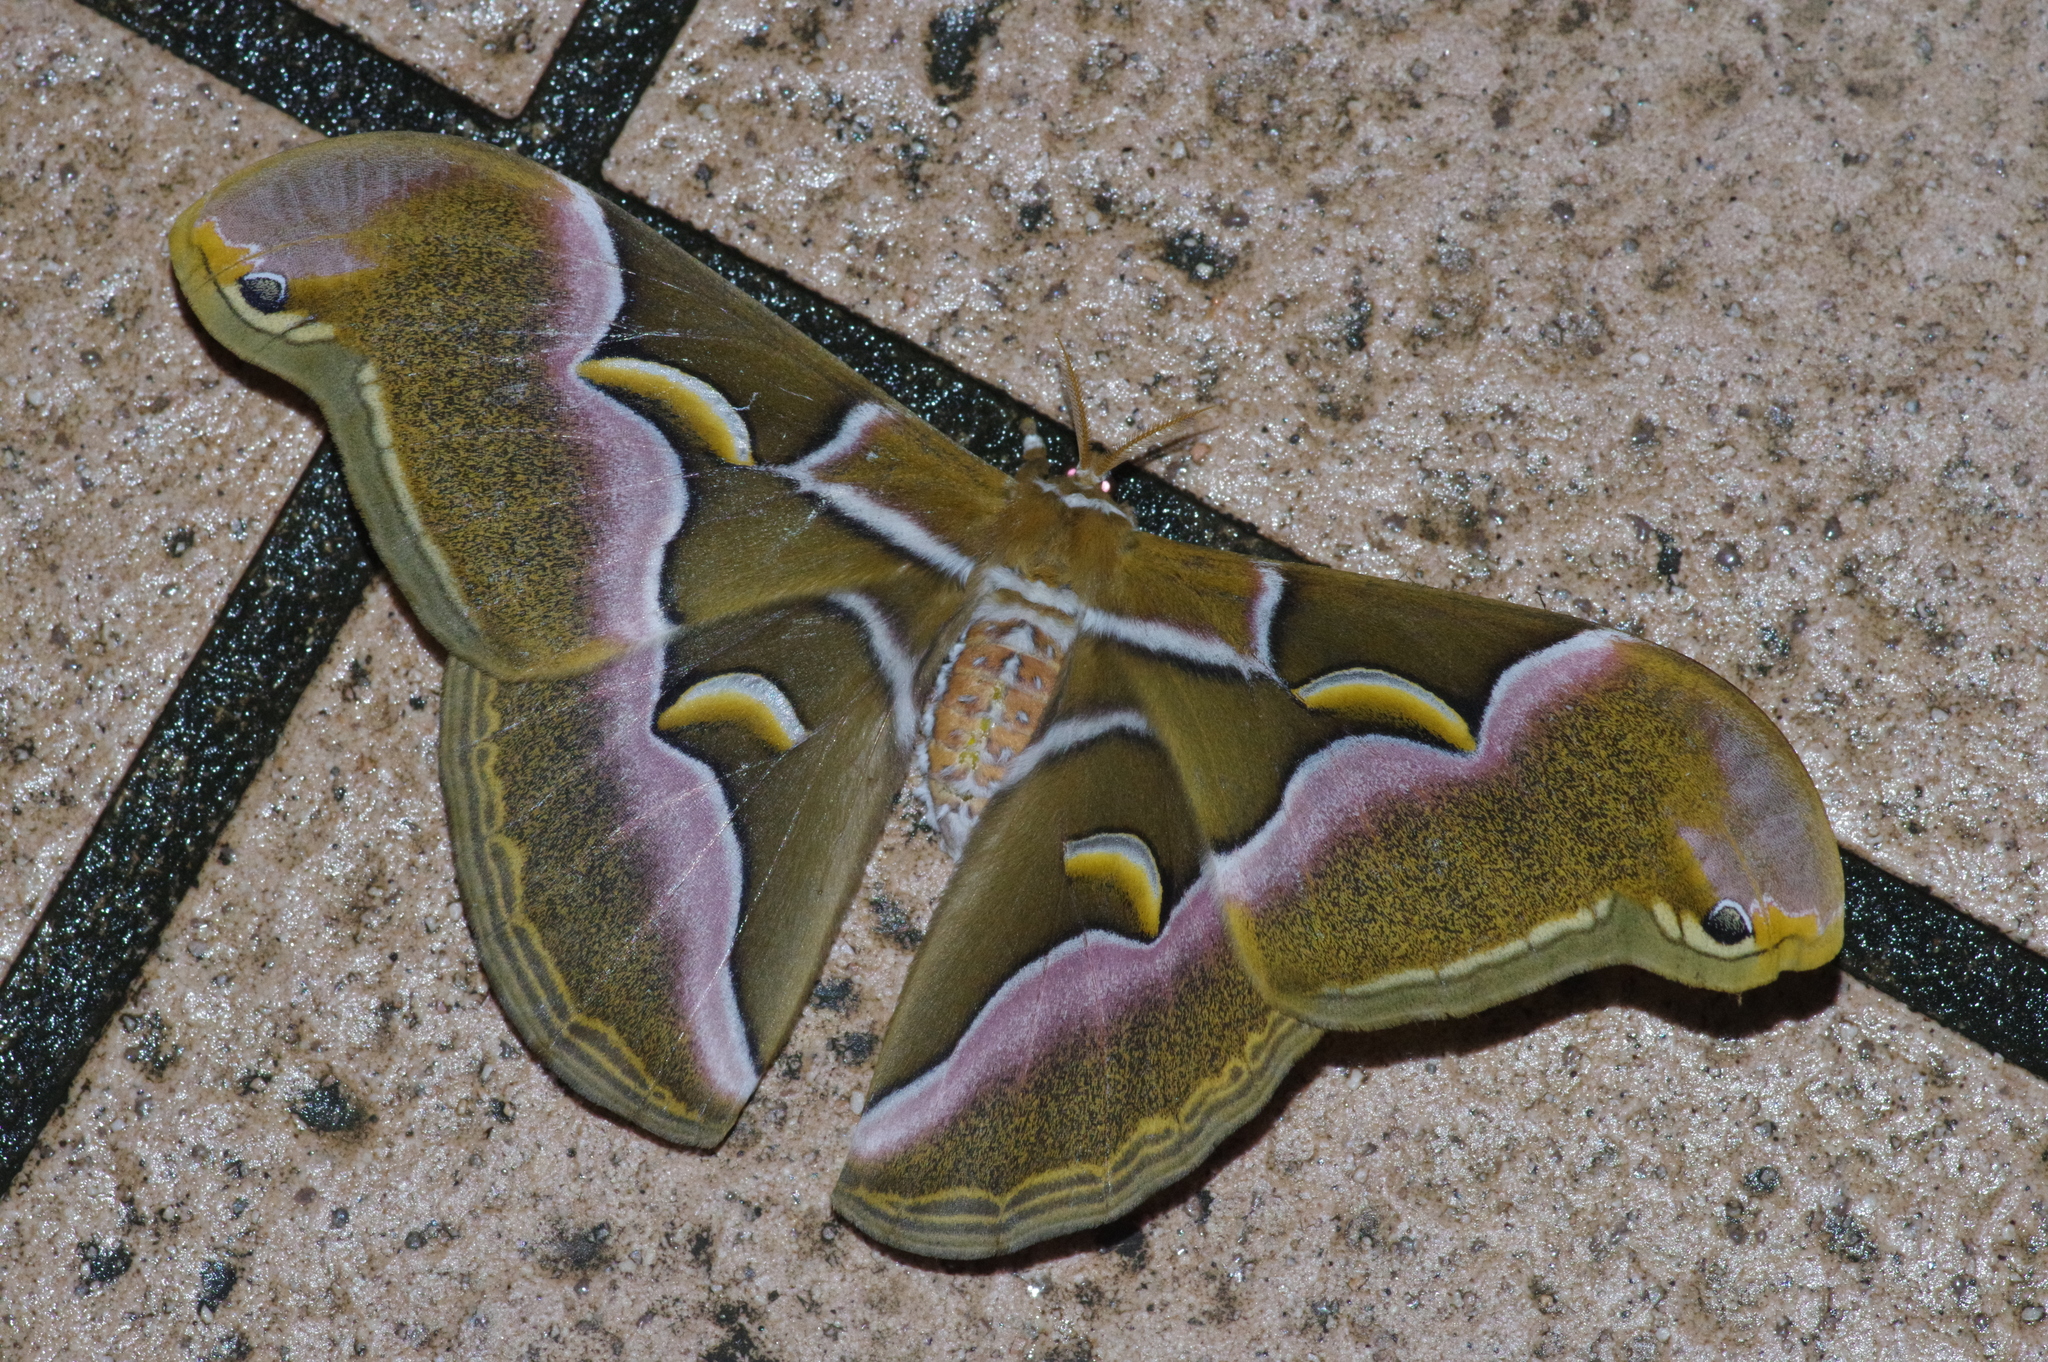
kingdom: Animalia
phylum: Arthropoda
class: Insecta
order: Lepidoptera
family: Saturniidae
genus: Samia
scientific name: Samia cynthia
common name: Ailanthus silkmoth
